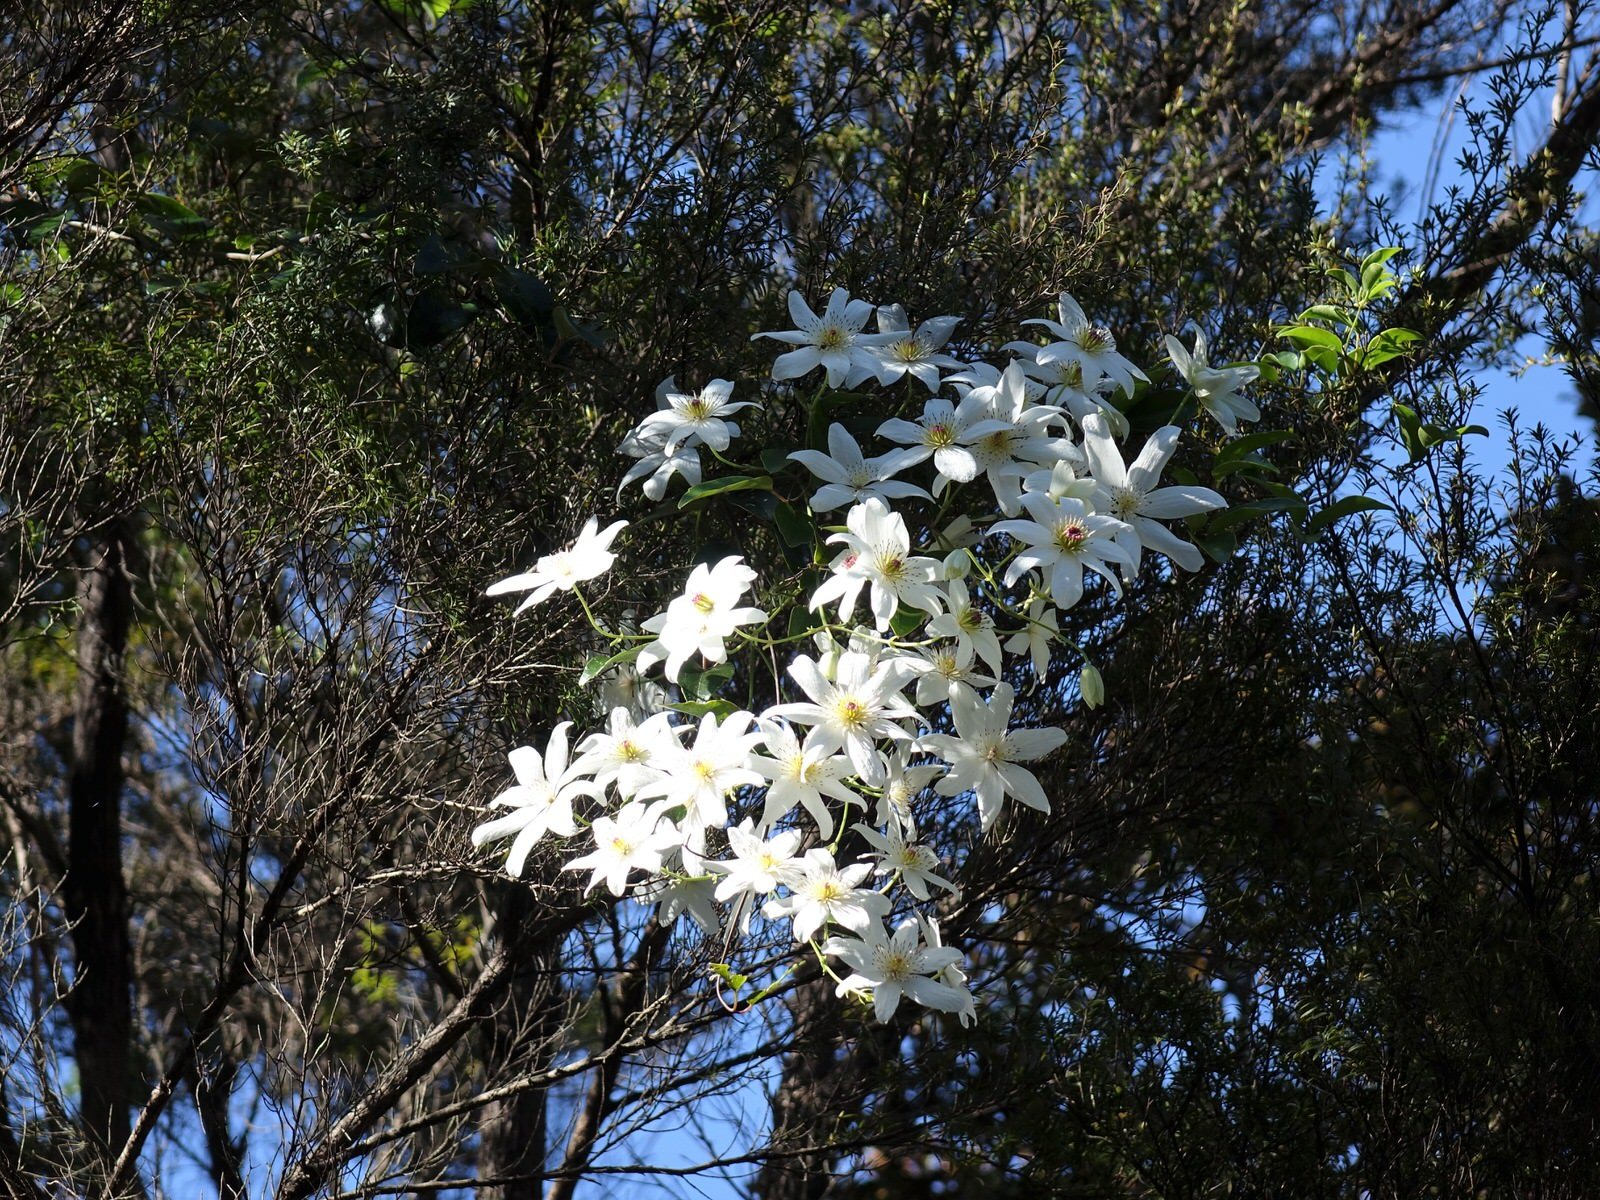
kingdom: Plantae
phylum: Tracheophyta
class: Magnoliopsida
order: Ranunculales
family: Ranunculaceae
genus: Clematis
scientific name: Clematis paniculata
